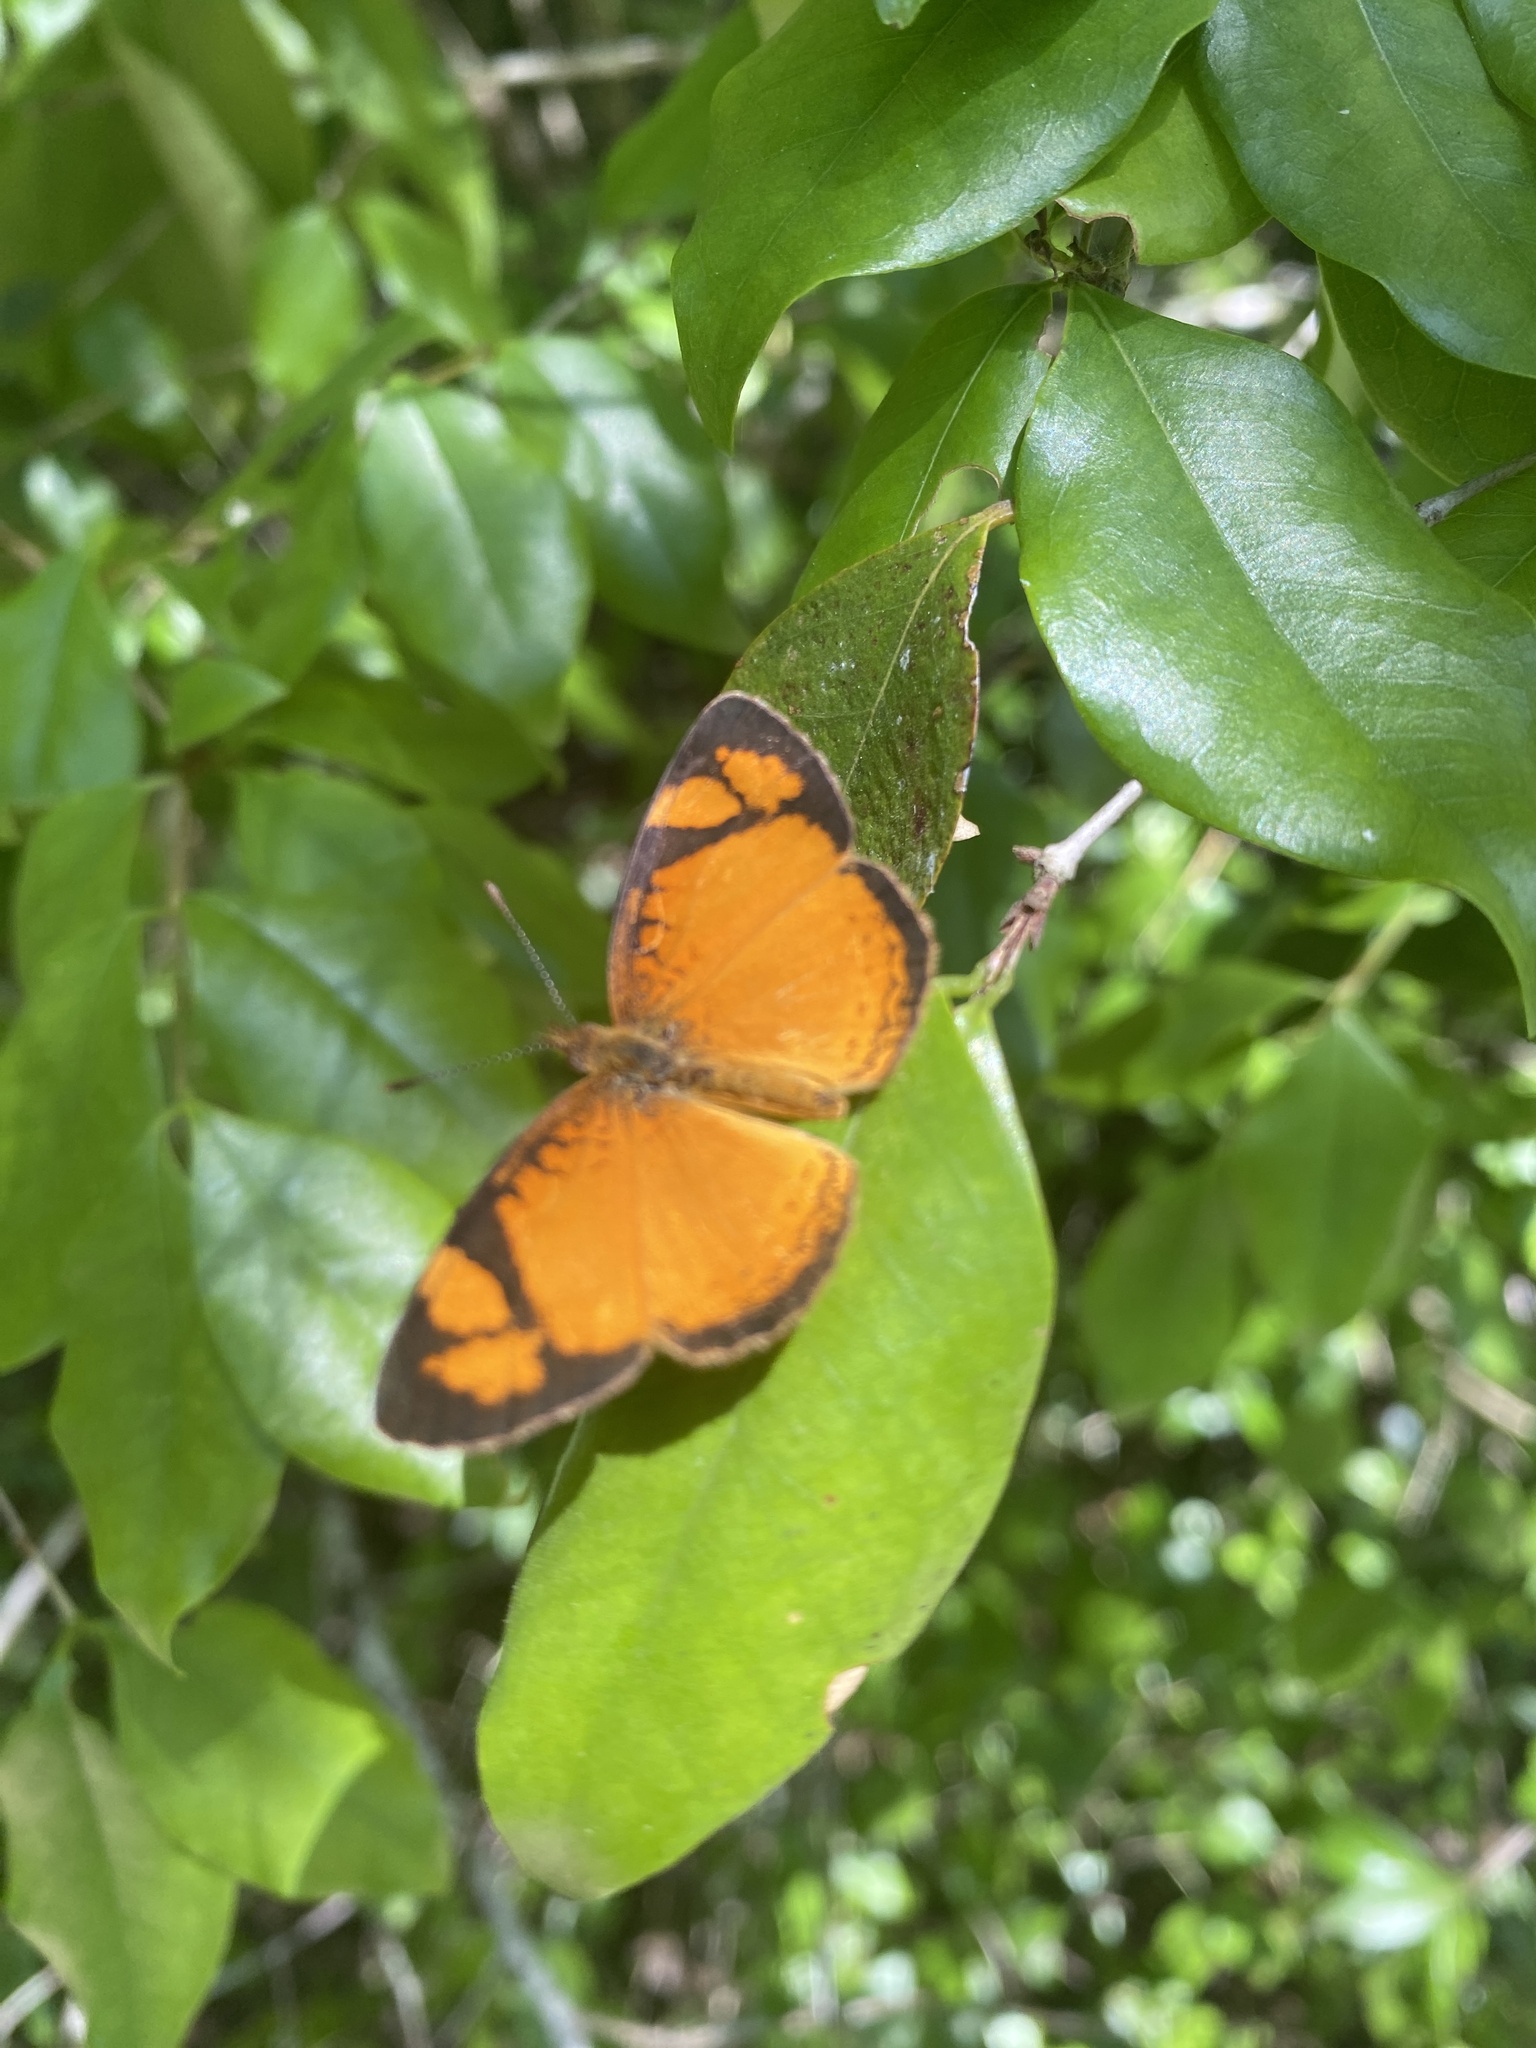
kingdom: Animalia
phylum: Arthropoda
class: Insecta
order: Lepidoptera
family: Nymphalidae
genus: Tegosa
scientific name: Tegosa claudina
